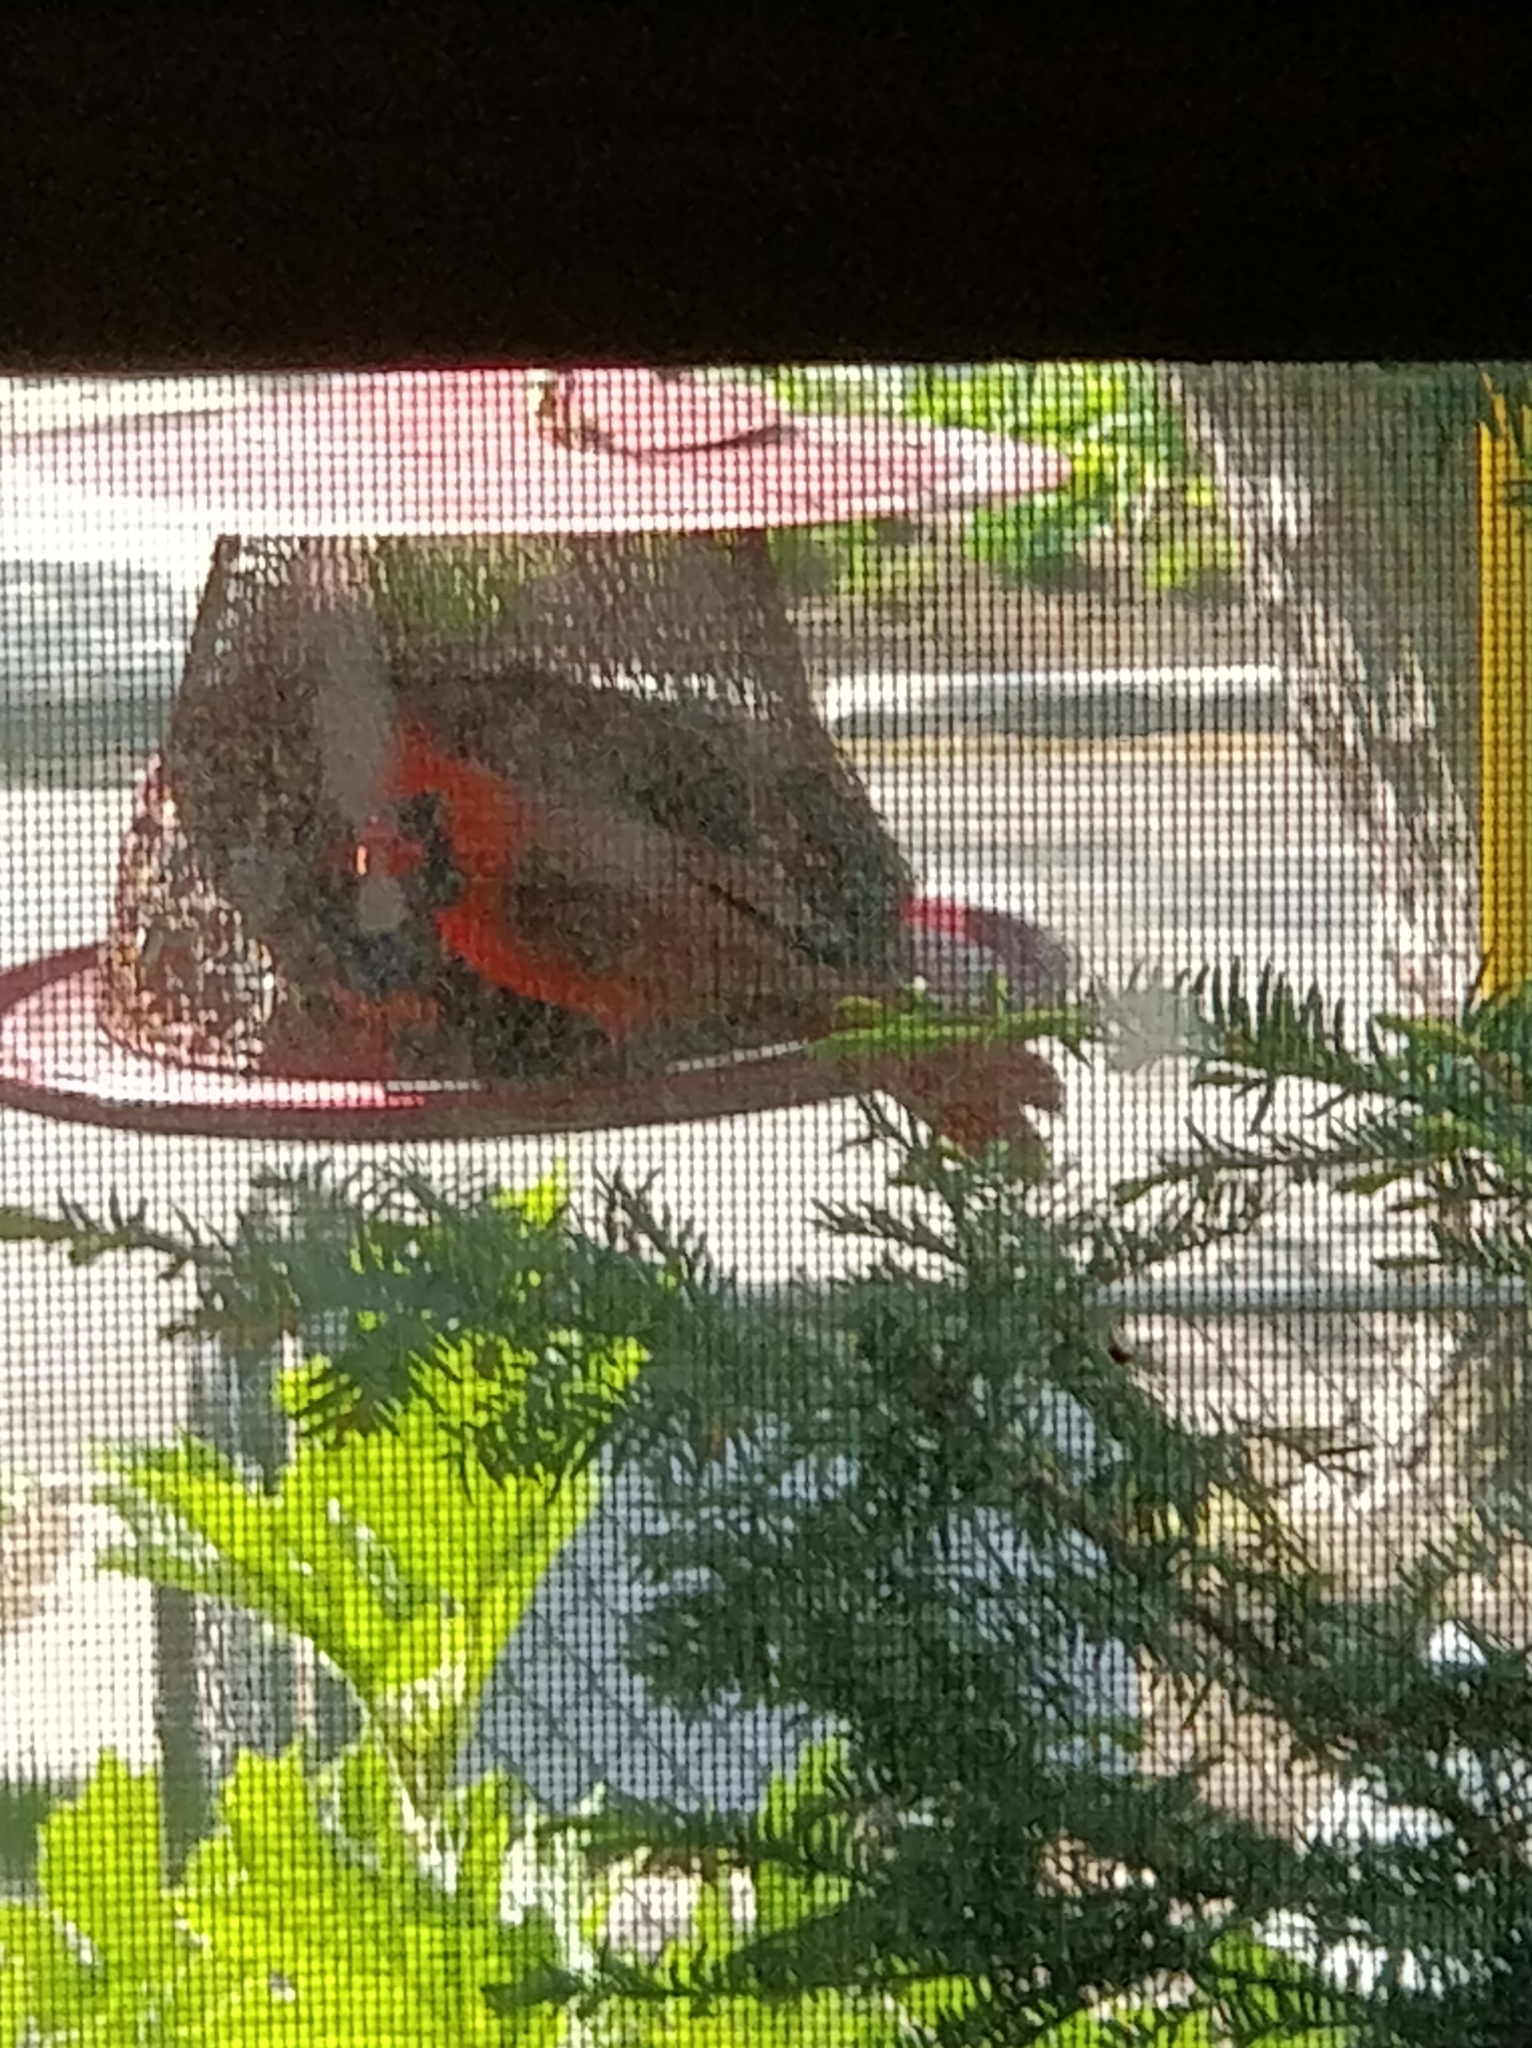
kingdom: Animalia
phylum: Chordata
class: Aves
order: Passeriformes
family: Cardinalidae
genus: Cardinalis
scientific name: Cardinalis cardinalis
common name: Northern cardinal
